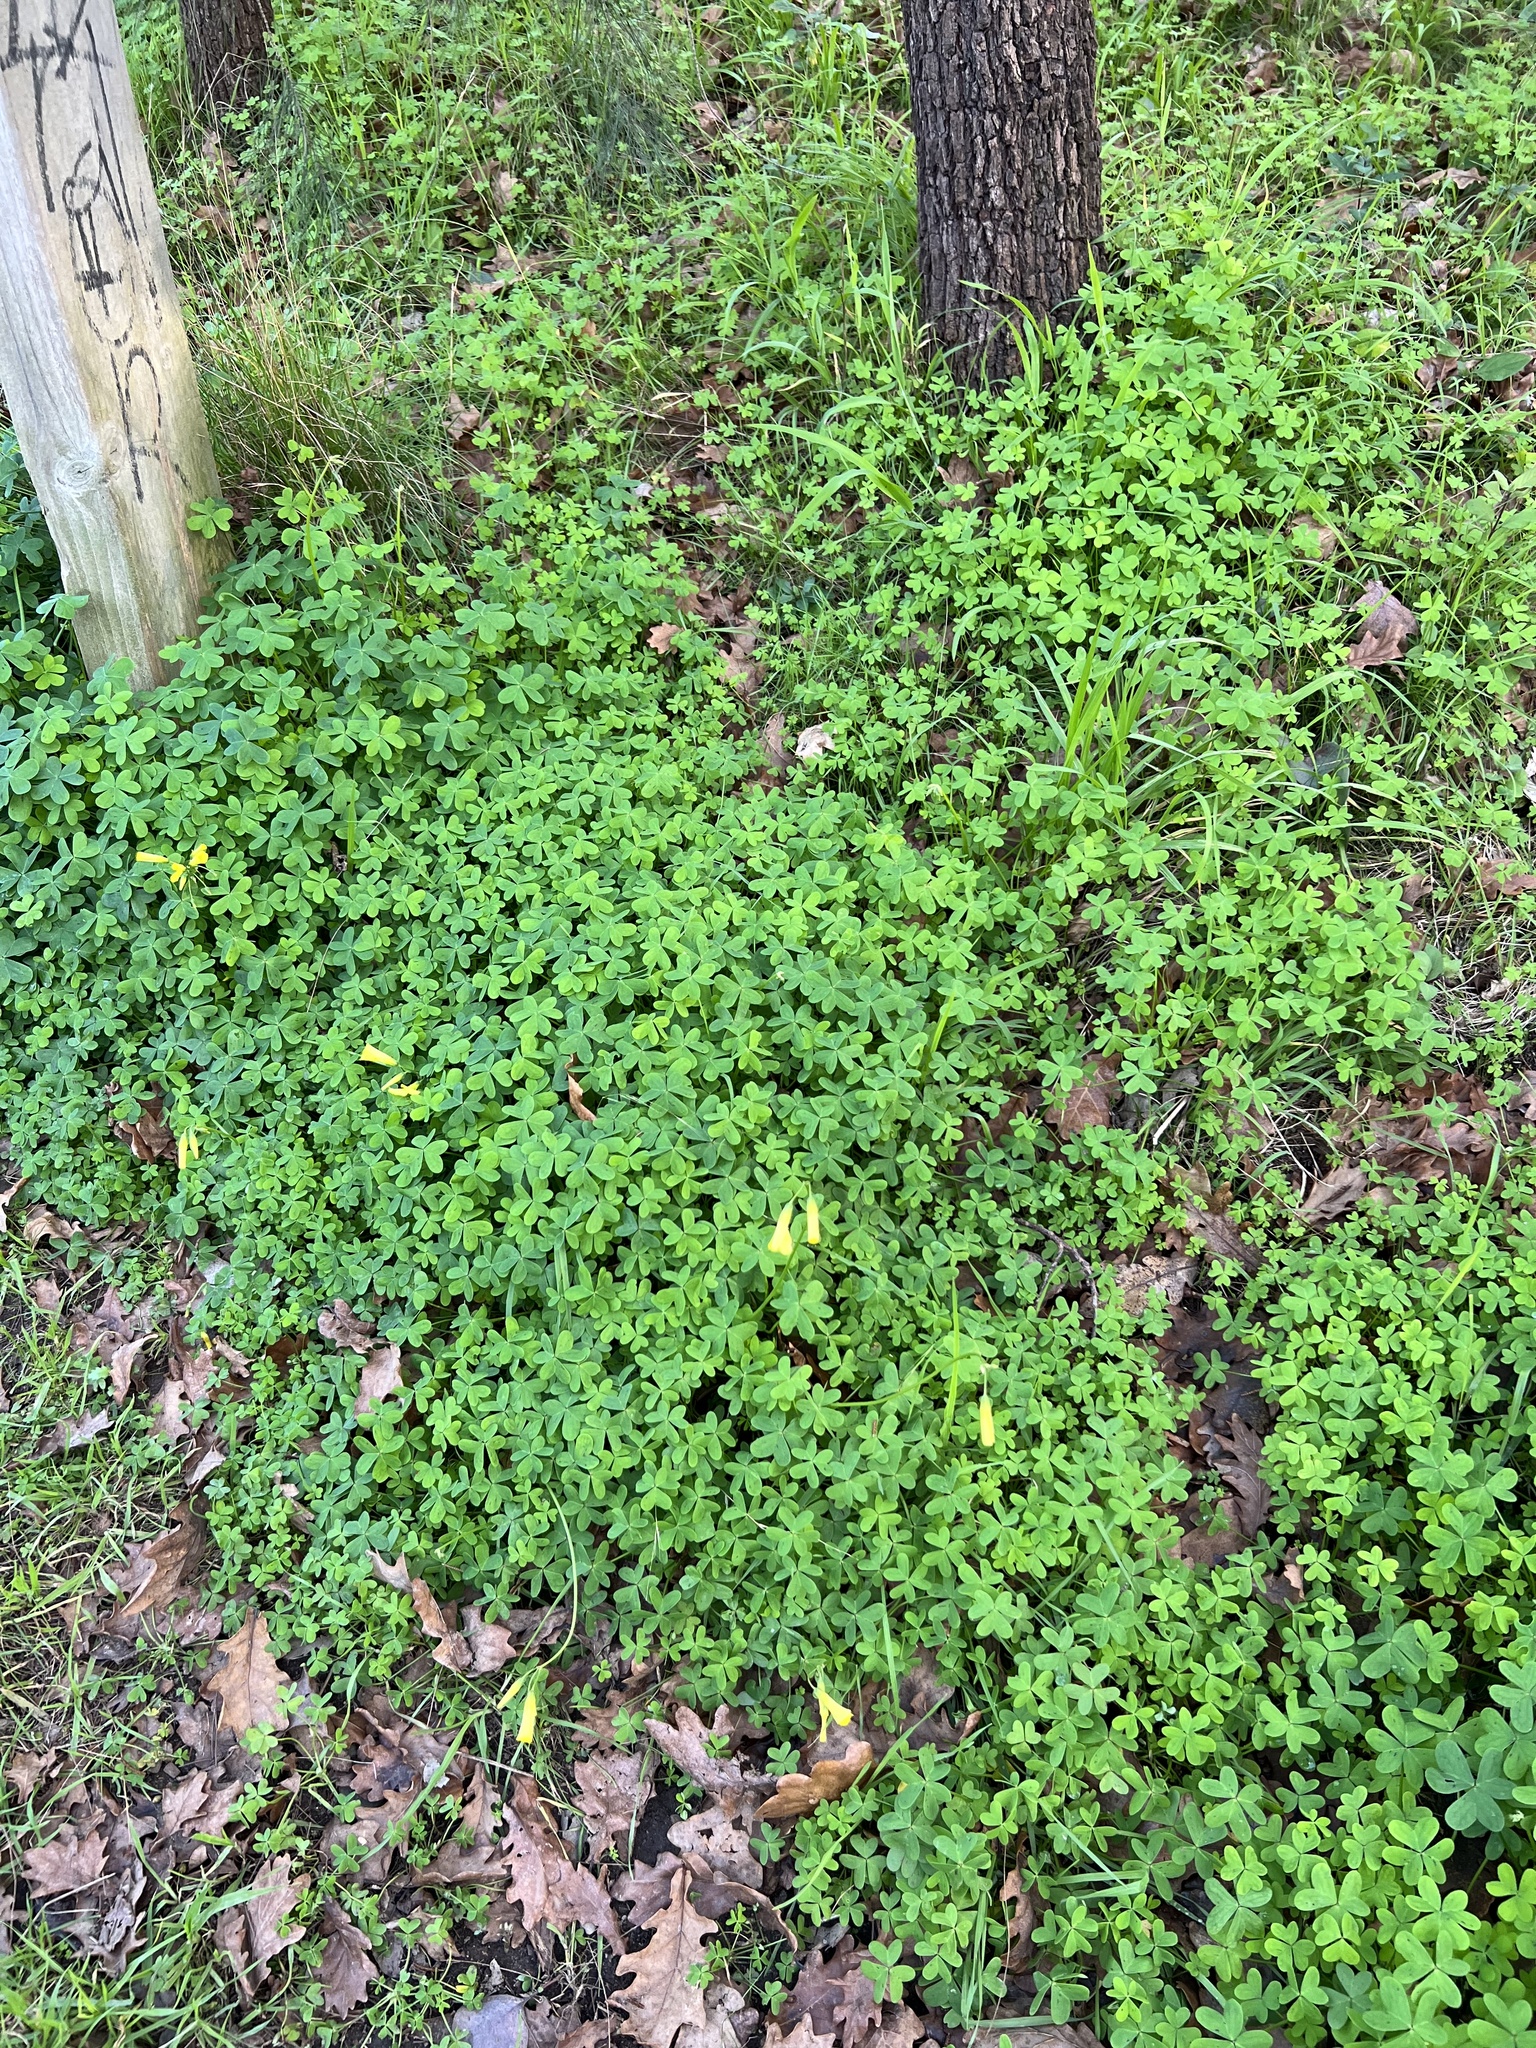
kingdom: Plantae
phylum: Tracheophyta
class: Magnoliopsida
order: Oxalidales
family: Oxalidaceae
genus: Oxalis
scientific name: Oxalis pes-caprae
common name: Bermuda-buttercup
